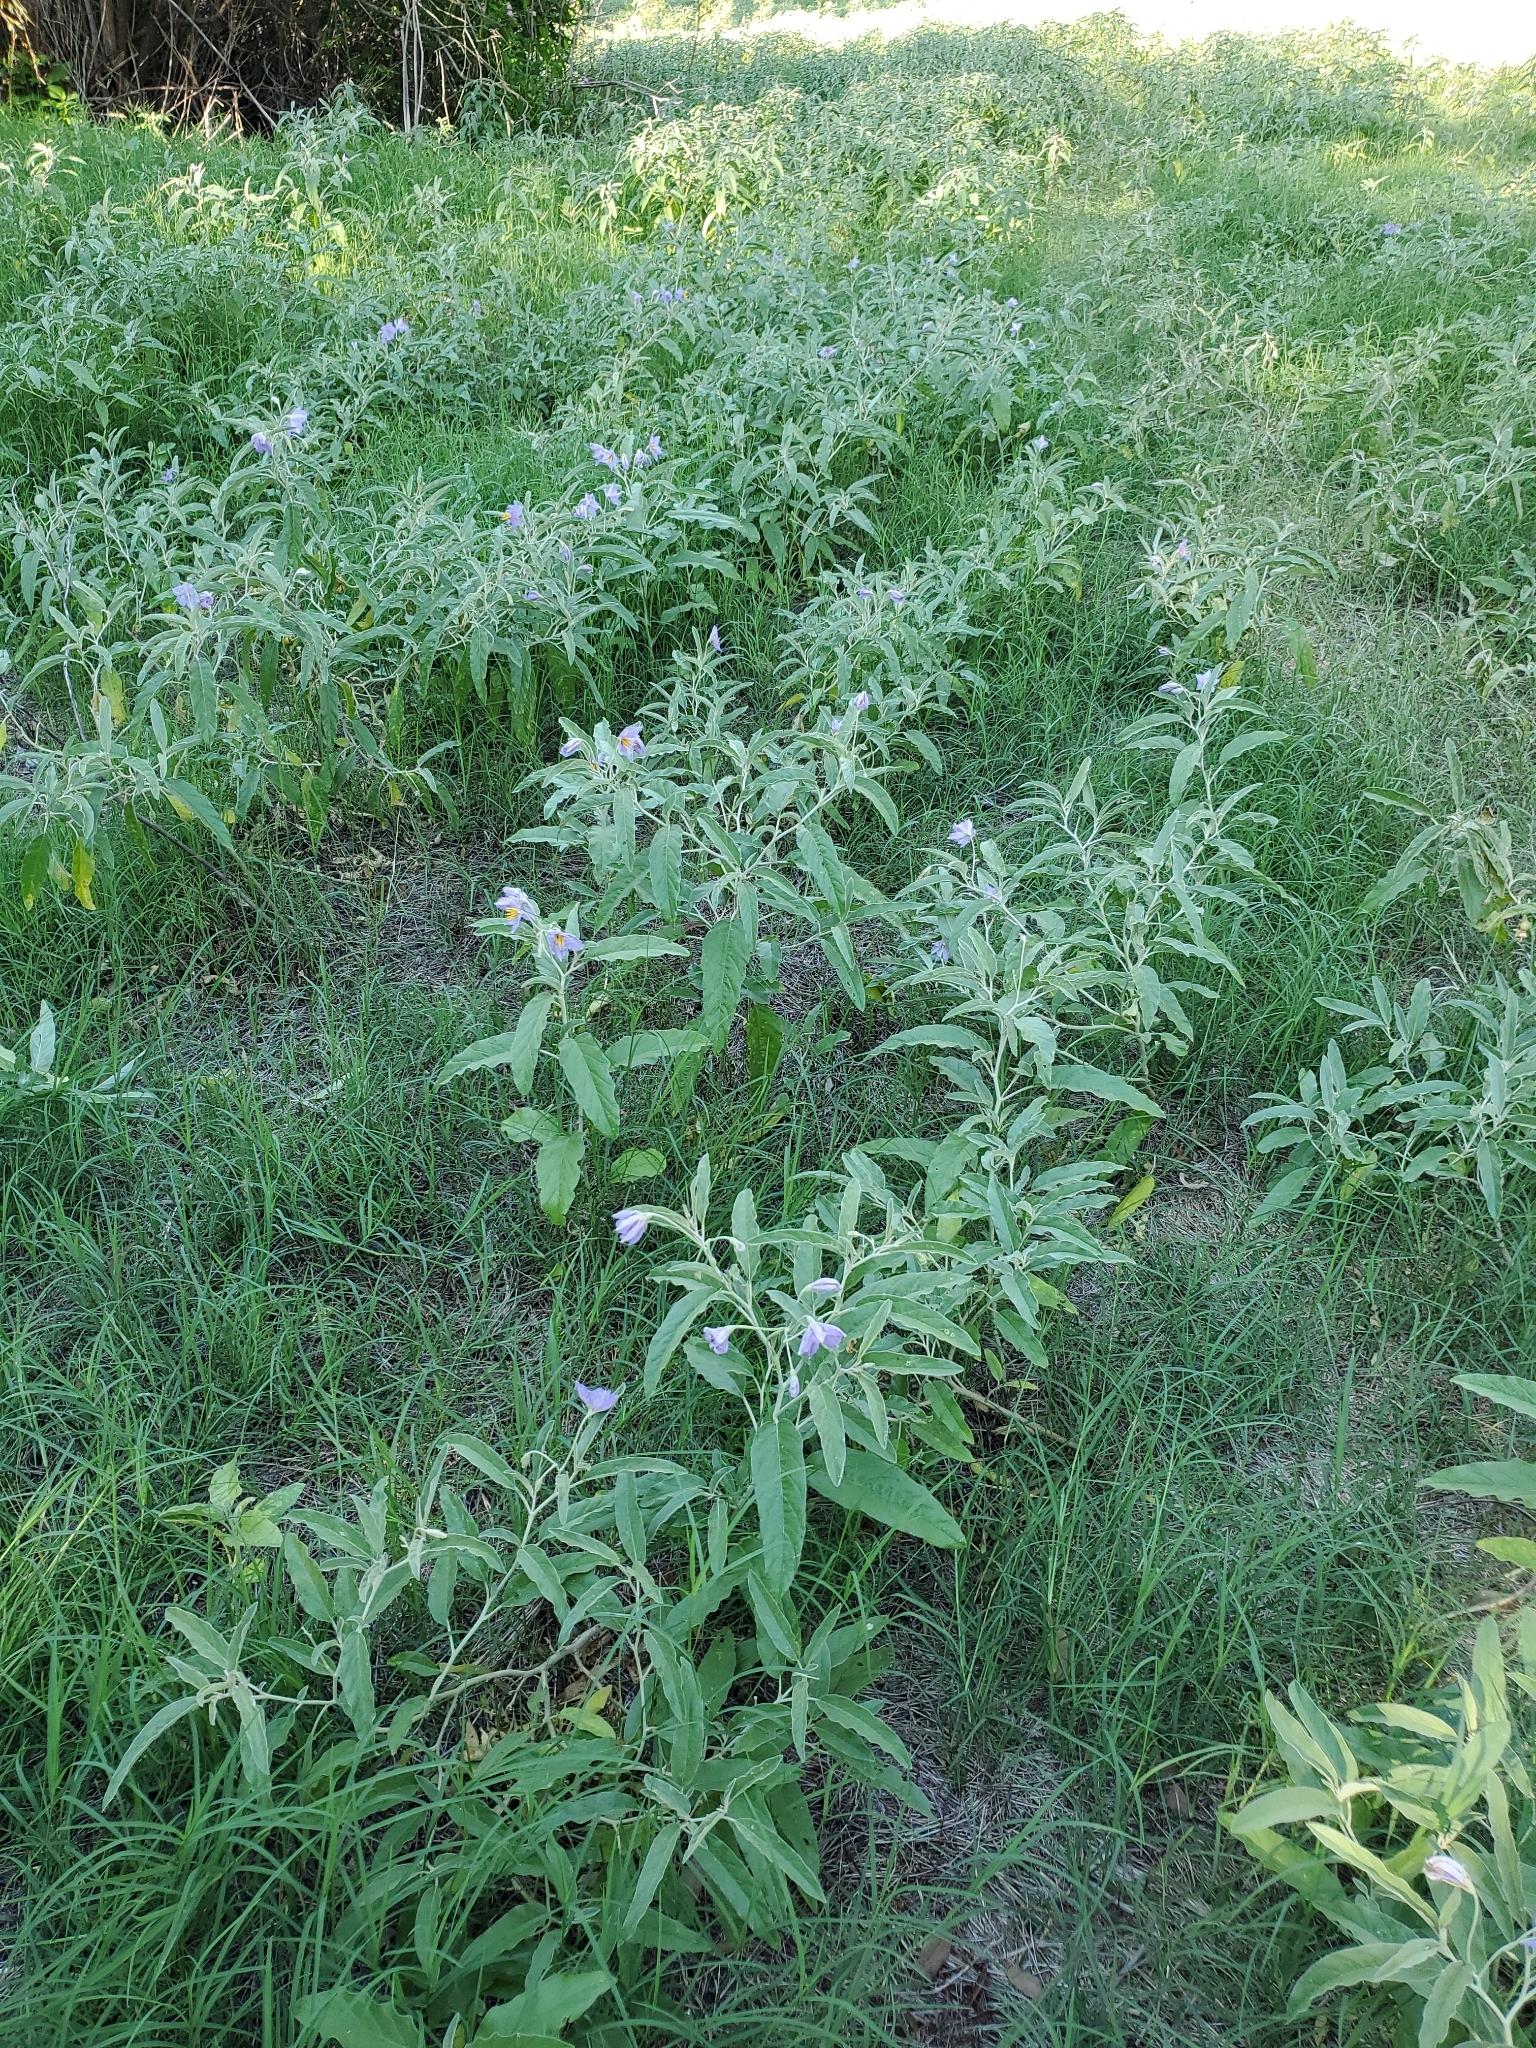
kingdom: Plantae
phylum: Tracheophyta
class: Magnoliopsida
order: Solanales
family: Solanaceae
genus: Solanum
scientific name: Solanum elaeagnifolium
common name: Silverleaf nightshade
